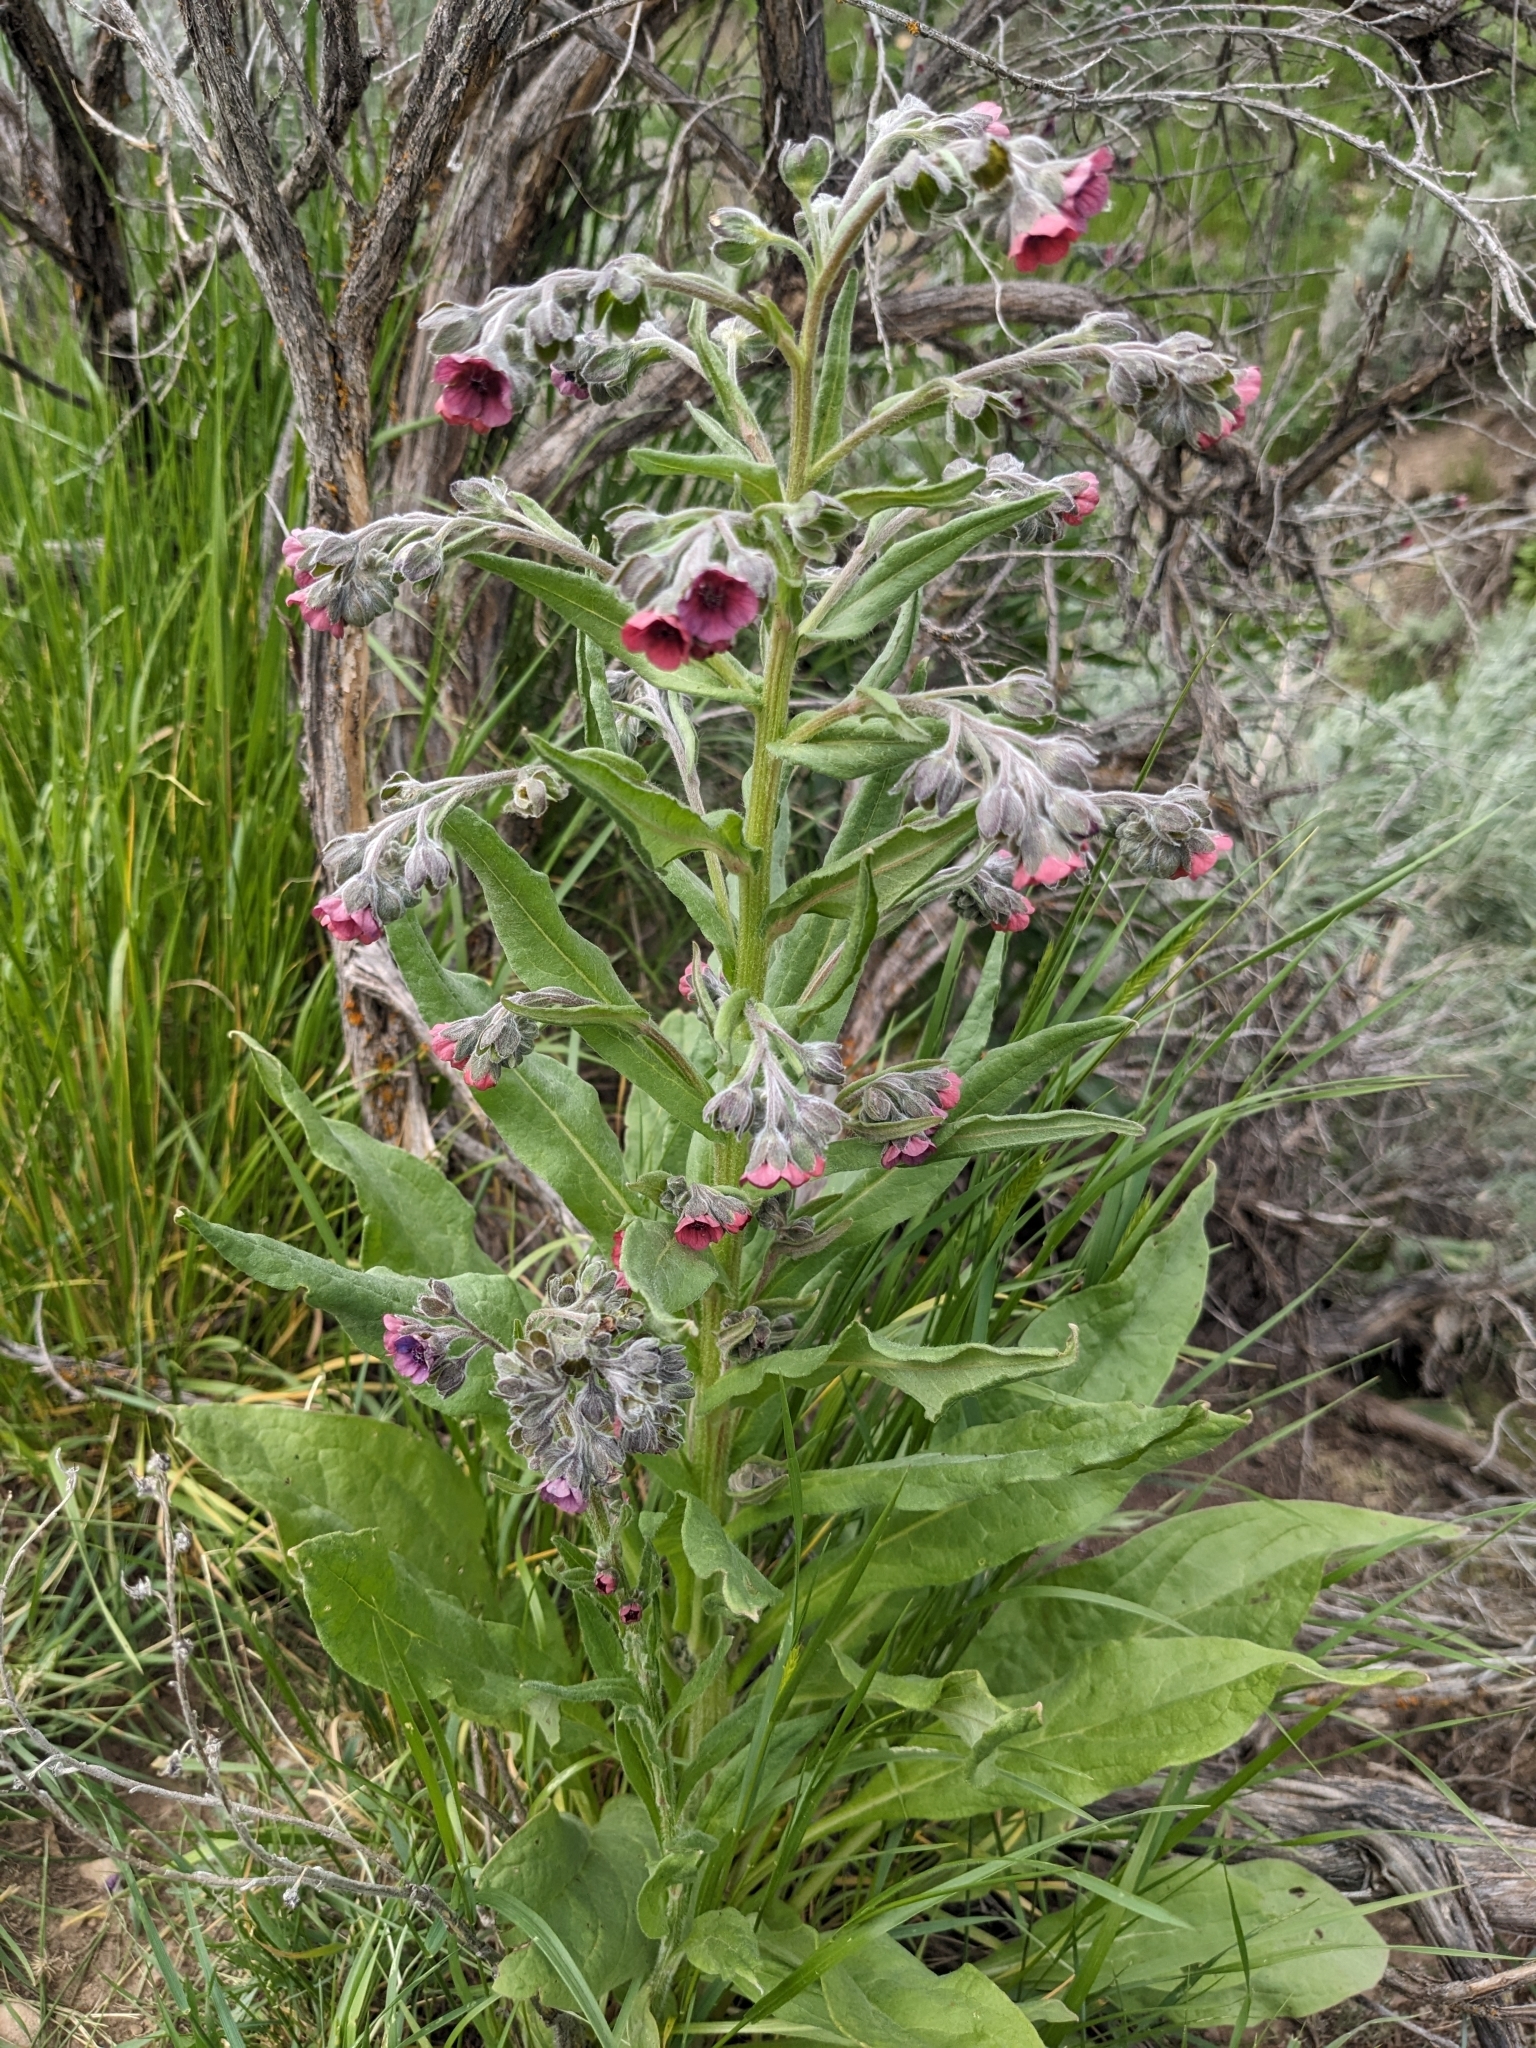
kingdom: Plantae
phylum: Tracheophyta
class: Magnoliopsida
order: Boraginales
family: Boraginaceae
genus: Cynoglossum
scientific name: Cynoglossum officinale
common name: Hound's-tongue
